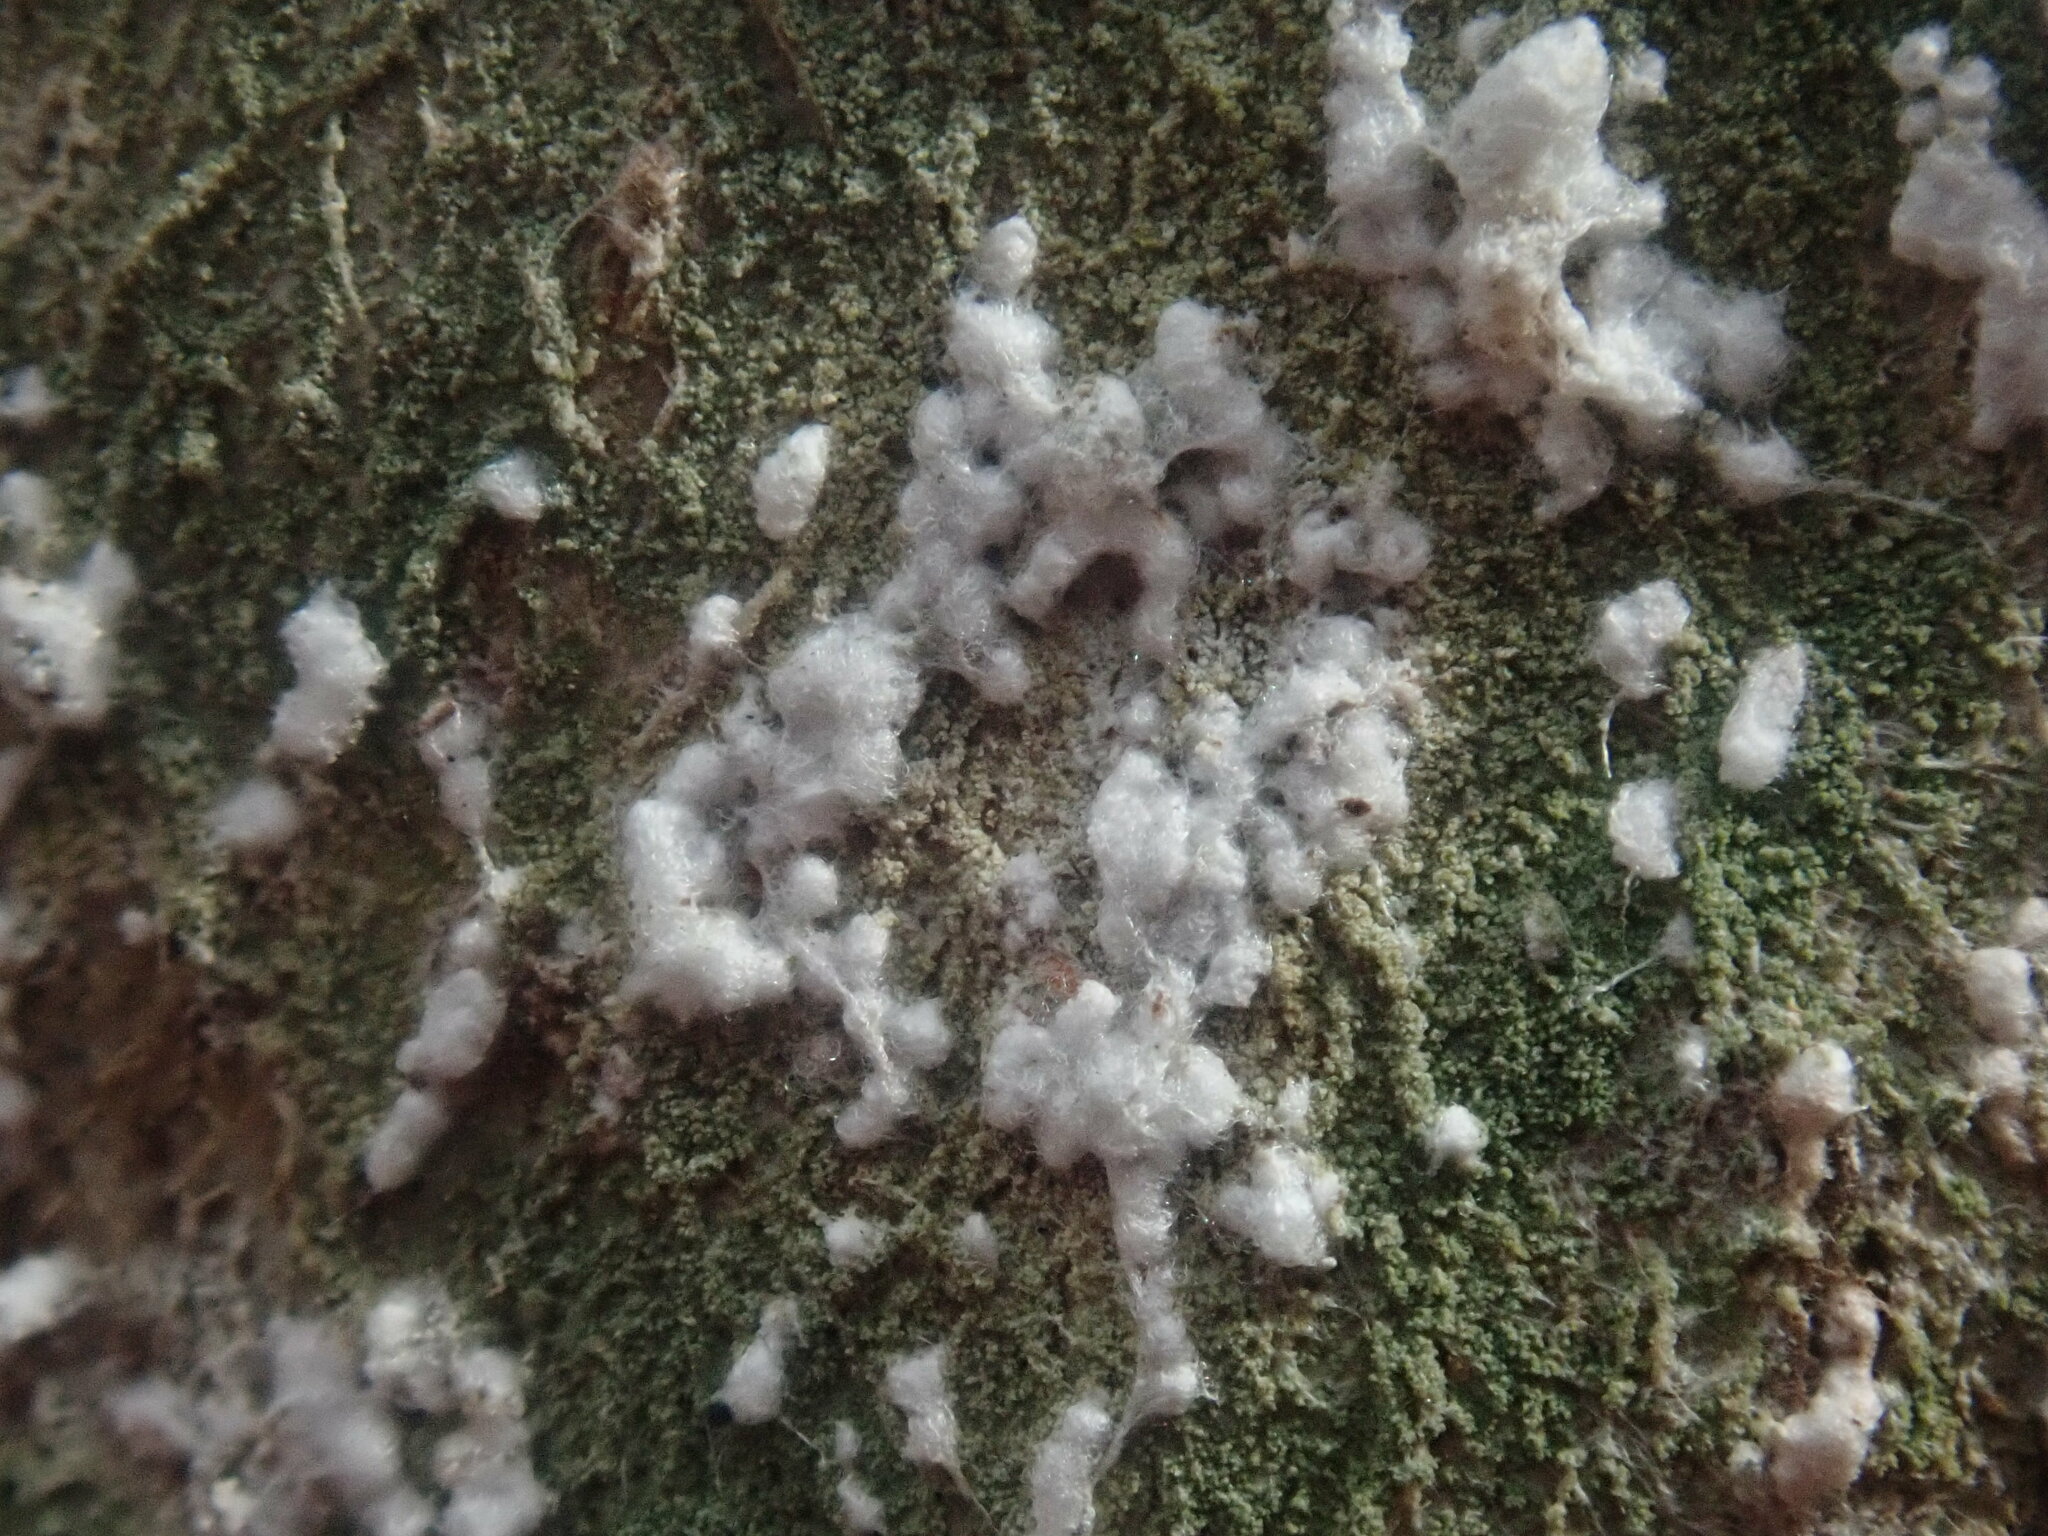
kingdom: Animalia
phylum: Arthropoda
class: Insecta
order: Hemiptera
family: Eriococcidae
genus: Cryptococcus
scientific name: Cryptococcus fagisuga
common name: Beech scale
